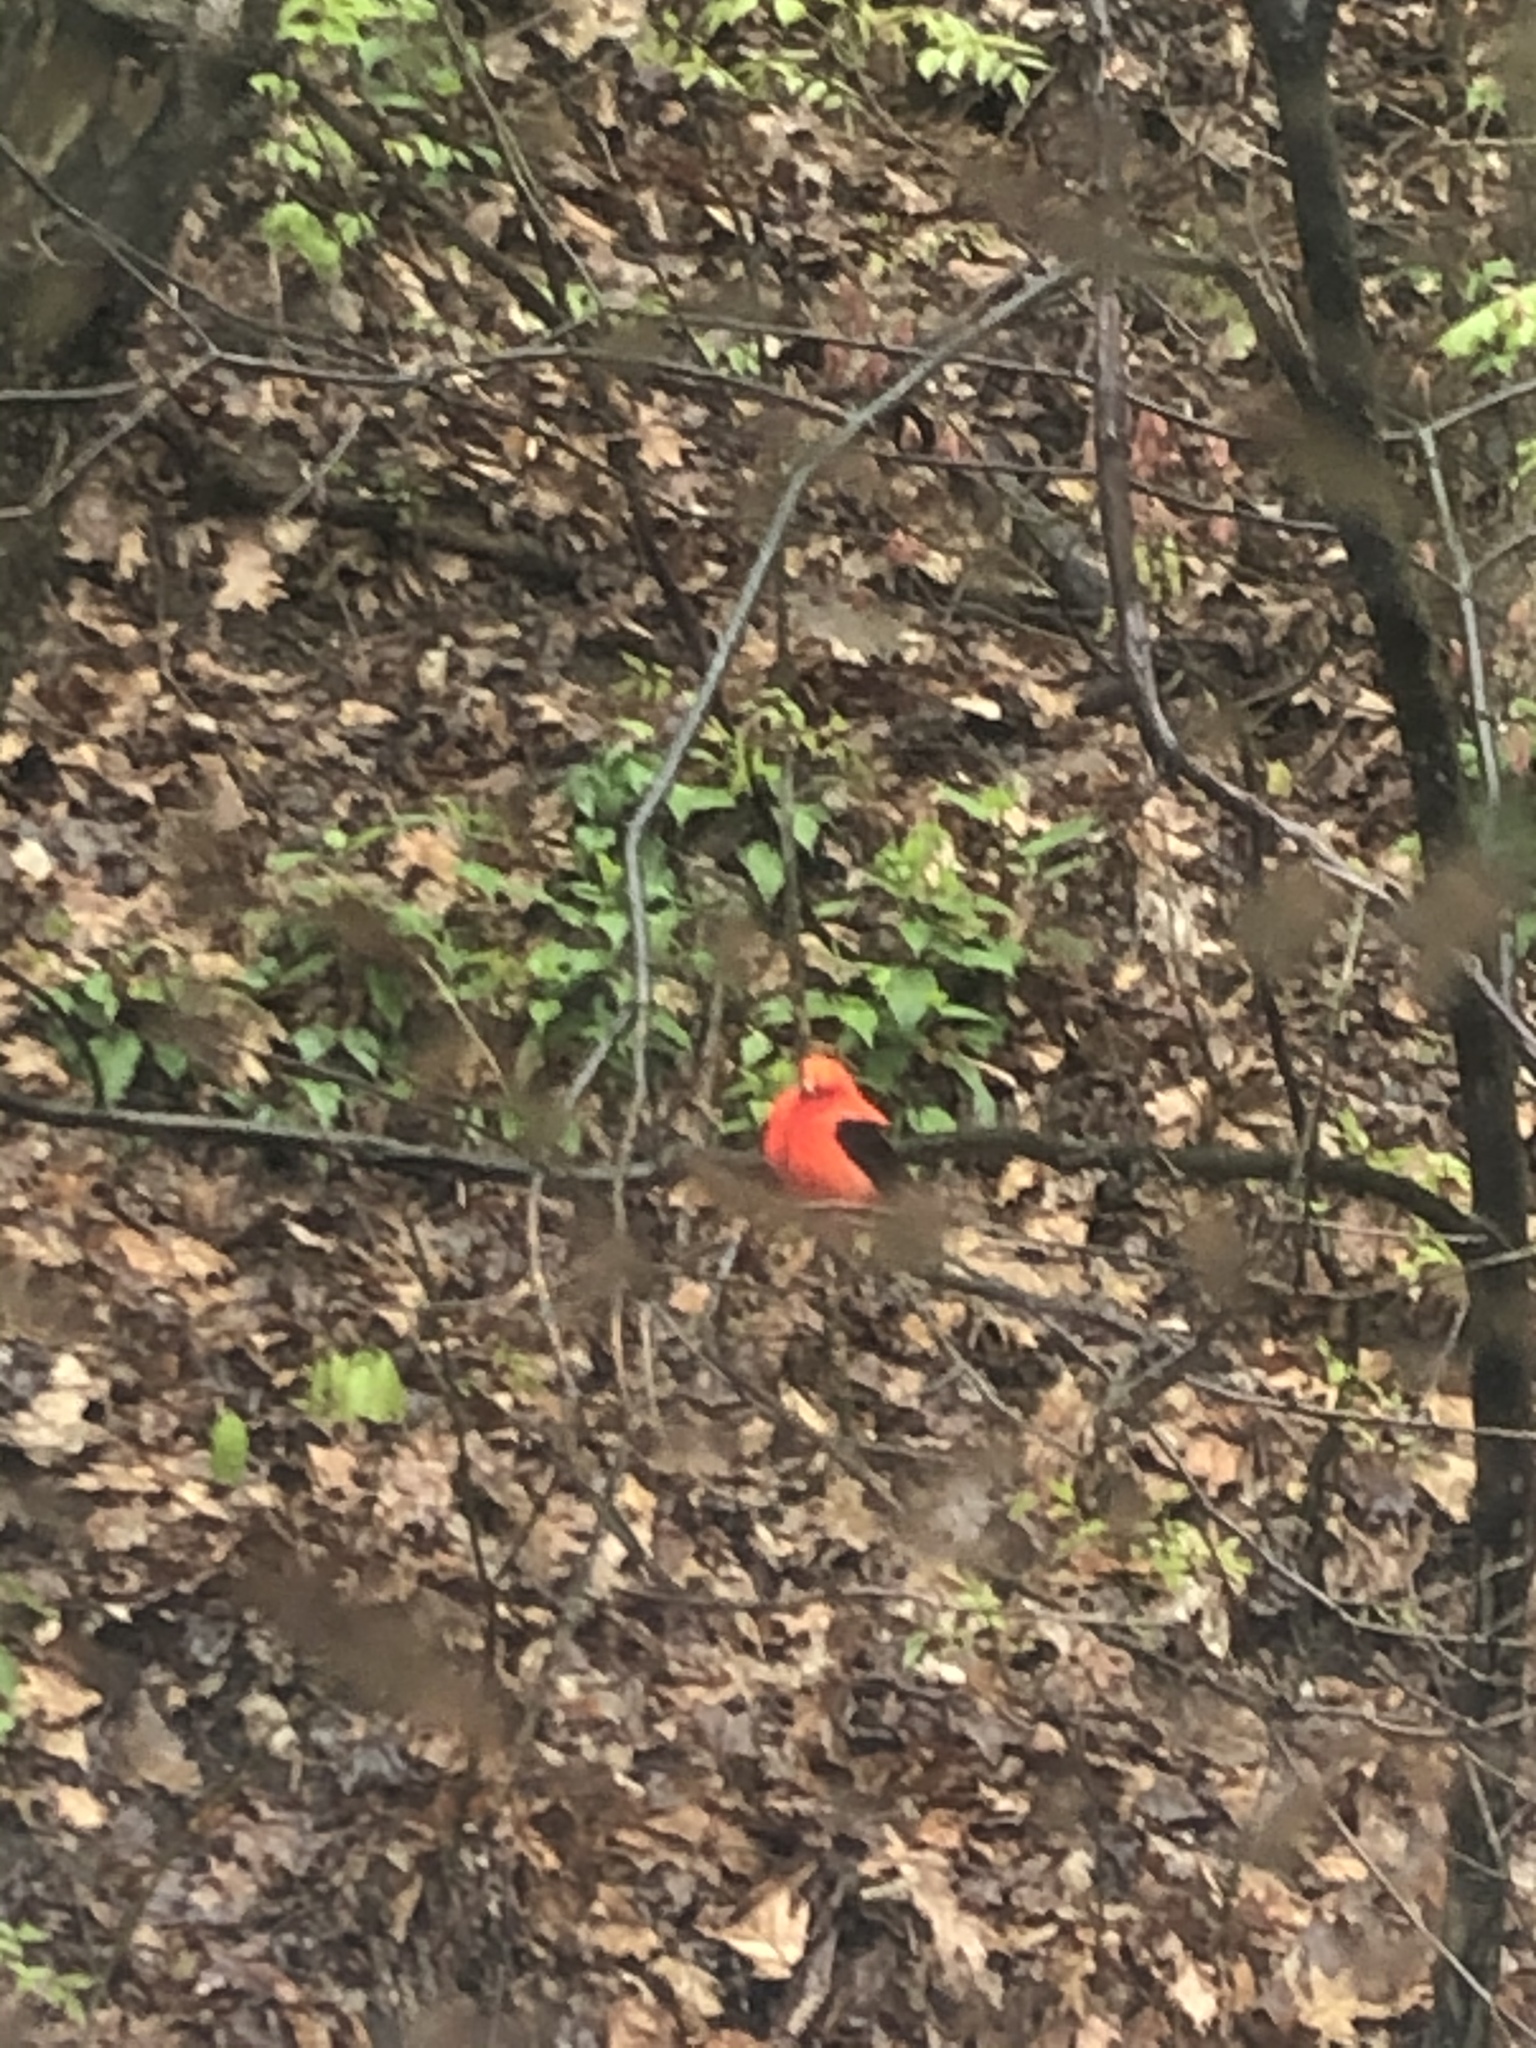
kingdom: Animalia
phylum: Chordata
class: Aves
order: Passeriformes
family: Cardinalidae
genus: Piranga
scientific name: Piranga olivacea
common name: Scarlet tanager
